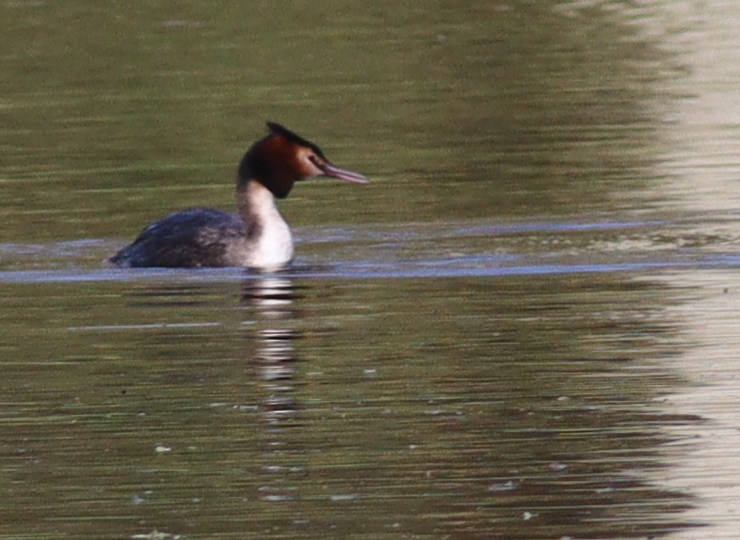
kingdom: Animalia
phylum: Chordata
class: Aves
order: Podicipediformes
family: Podicipedidae
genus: Podiceps
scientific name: Podiceps cristatus
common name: Great crested grebe
